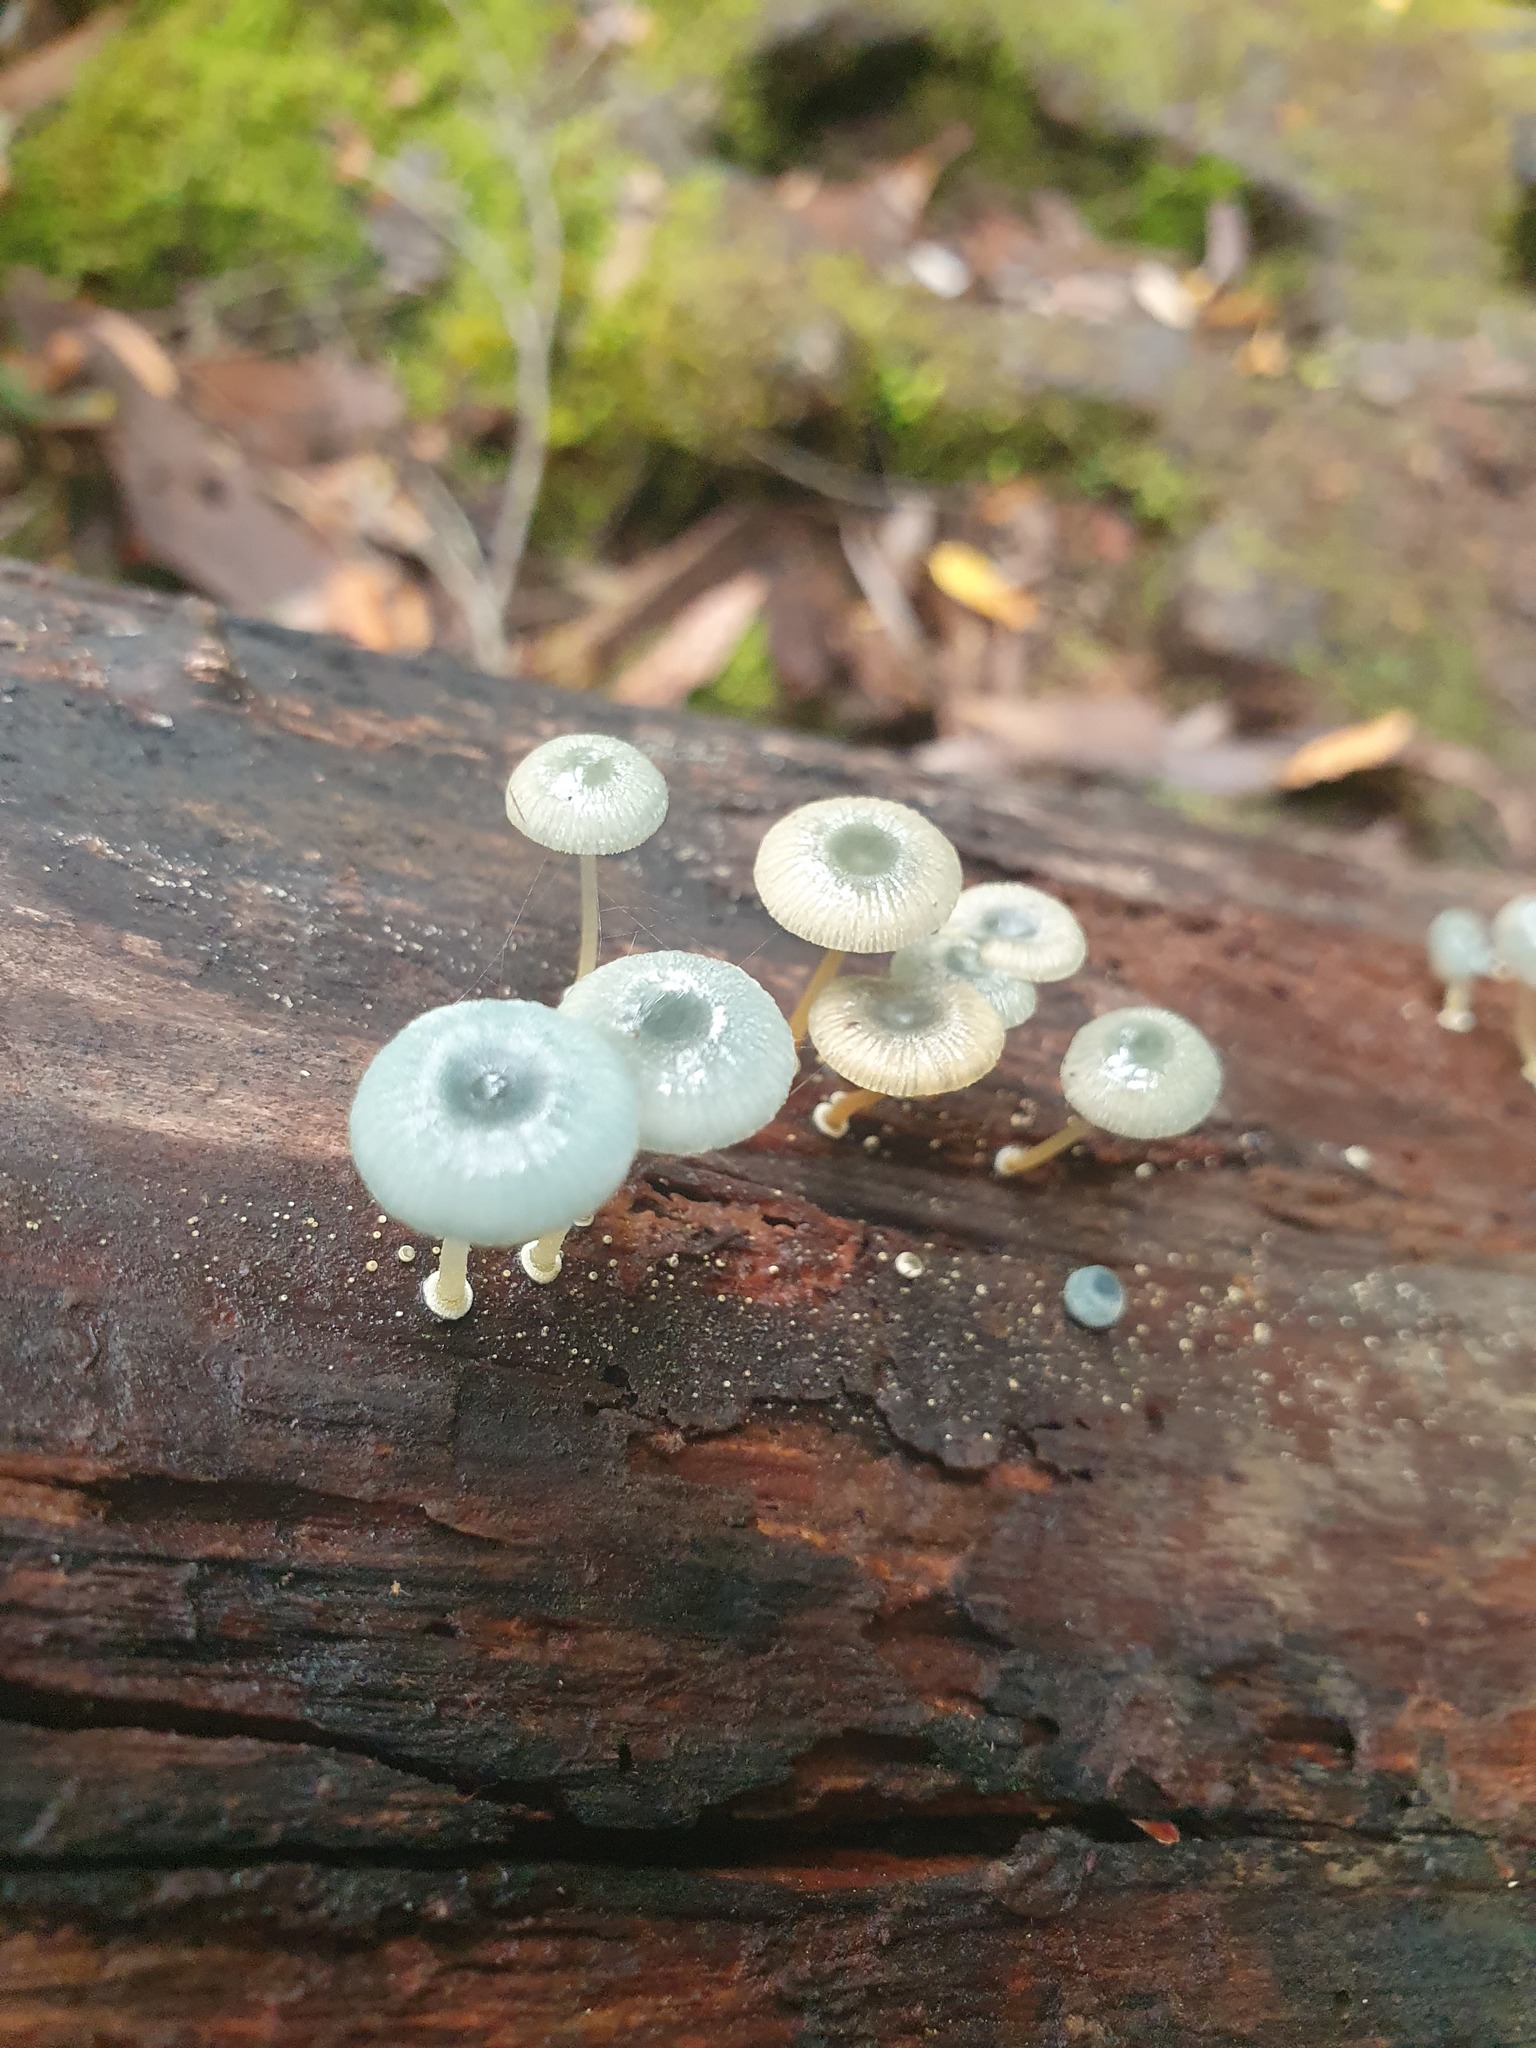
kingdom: Fungi
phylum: Basidiomycota
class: Agaricomycetes
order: Agaricales
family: Mycenaceae
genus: Mycena
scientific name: Mycena interrupta
